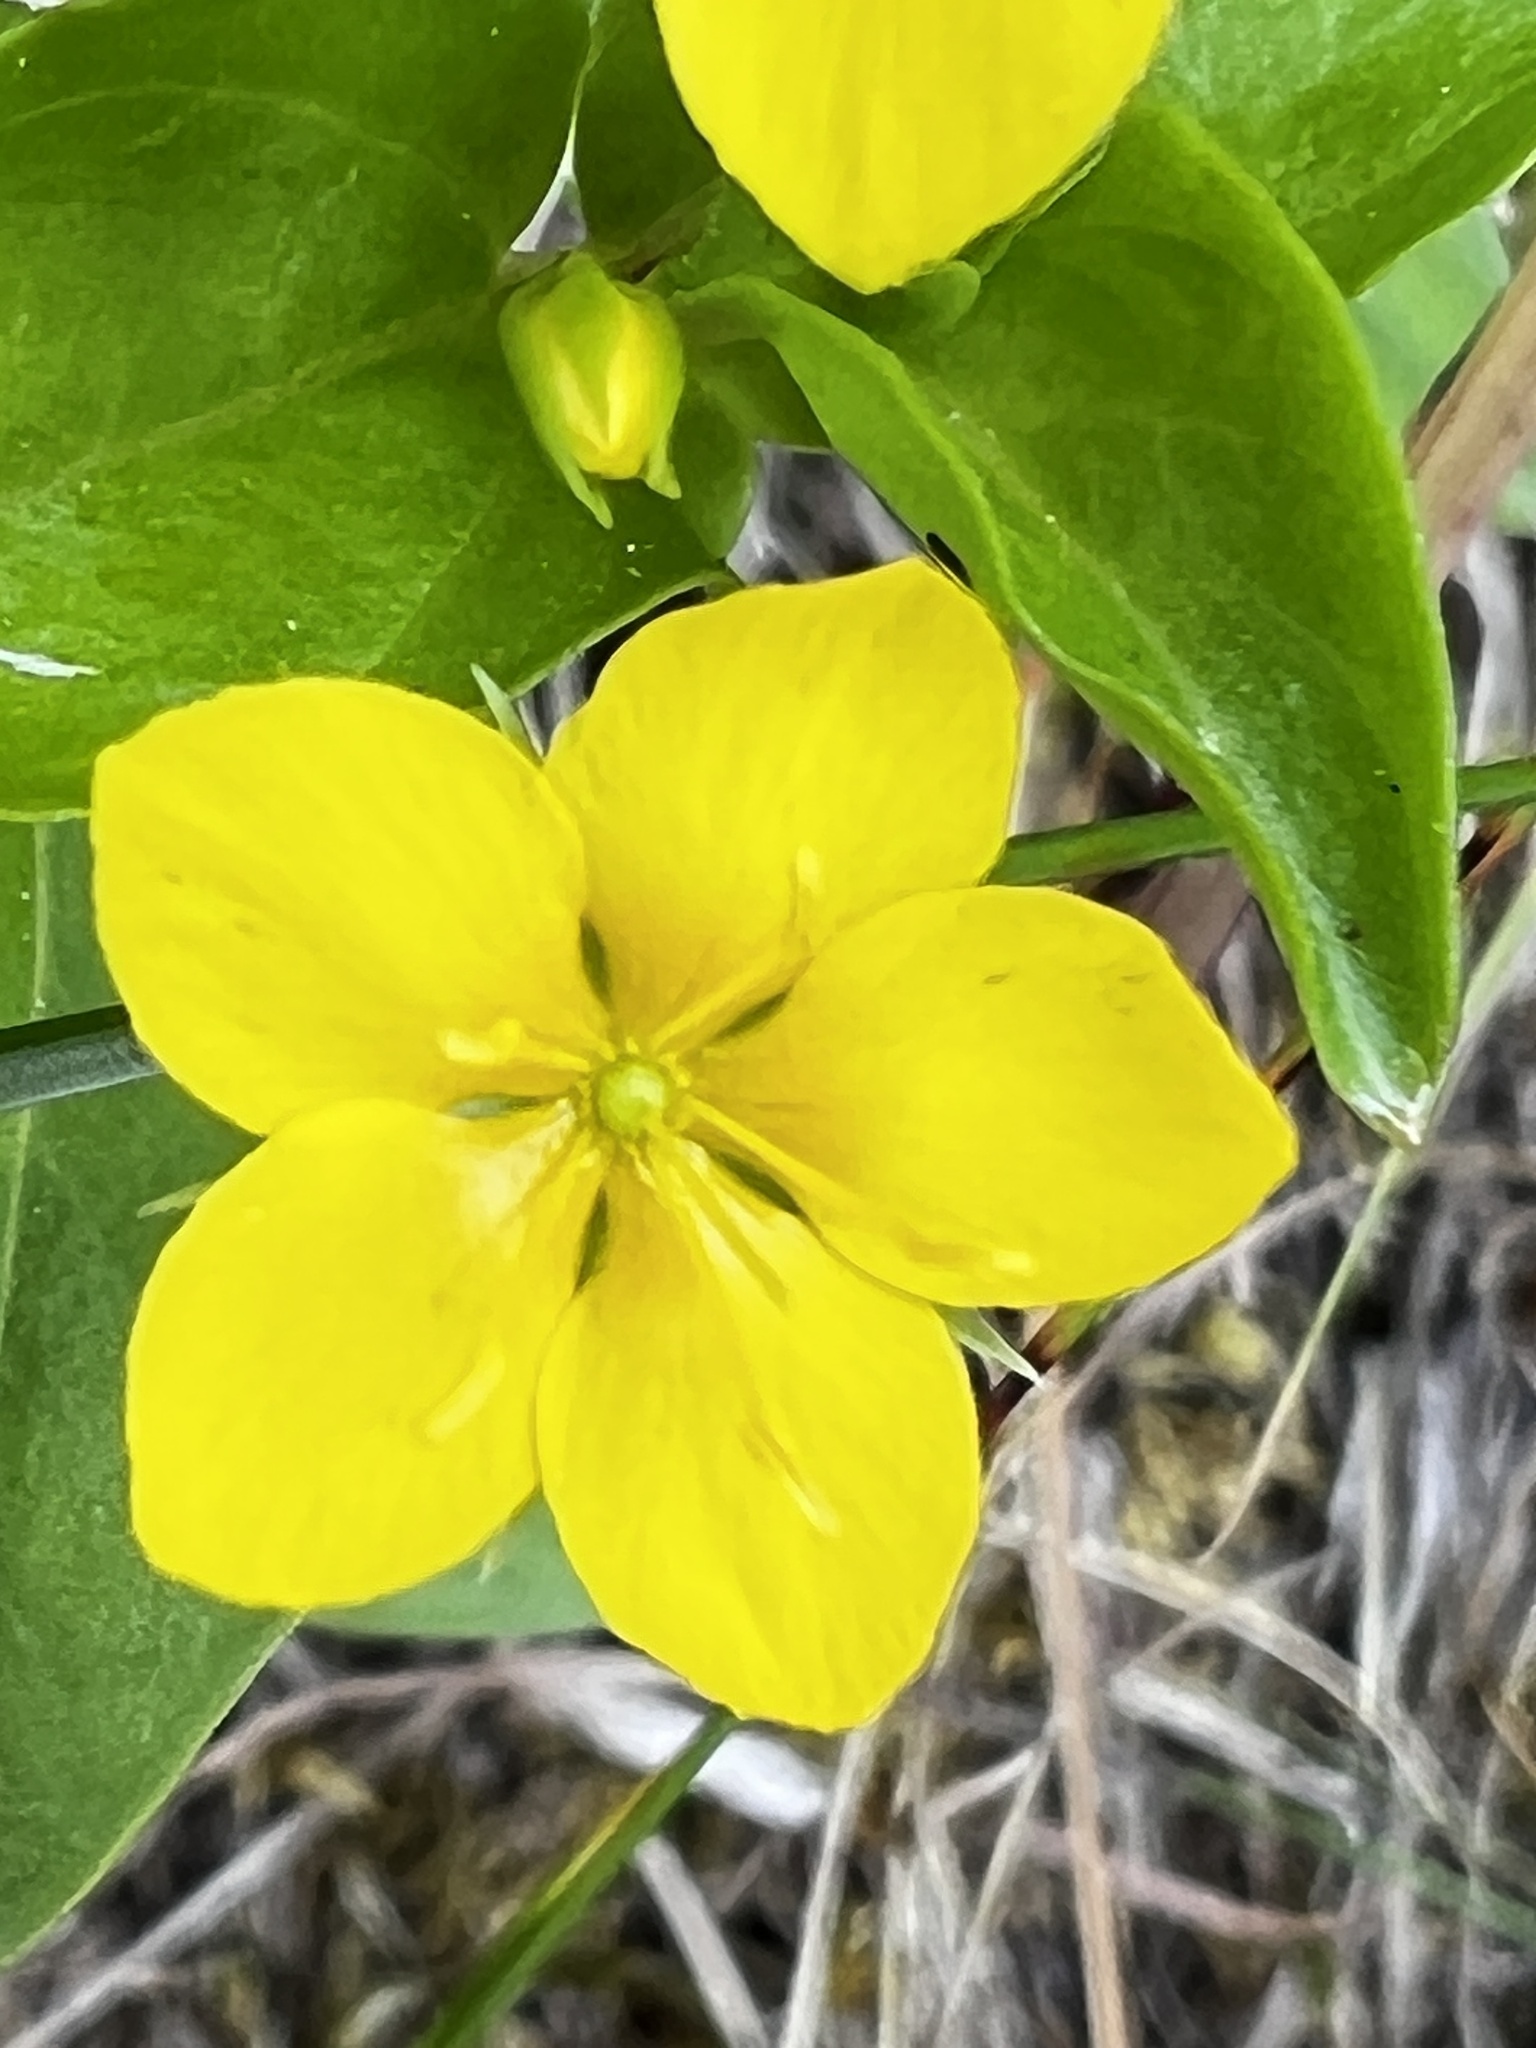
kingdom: Plantae
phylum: Tracheophyta
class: Magnoliopsida
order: Ericales
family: Primulaceae
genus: Lysimachia
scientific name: Lysimachia nemorum
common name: Yellow pimpernel
